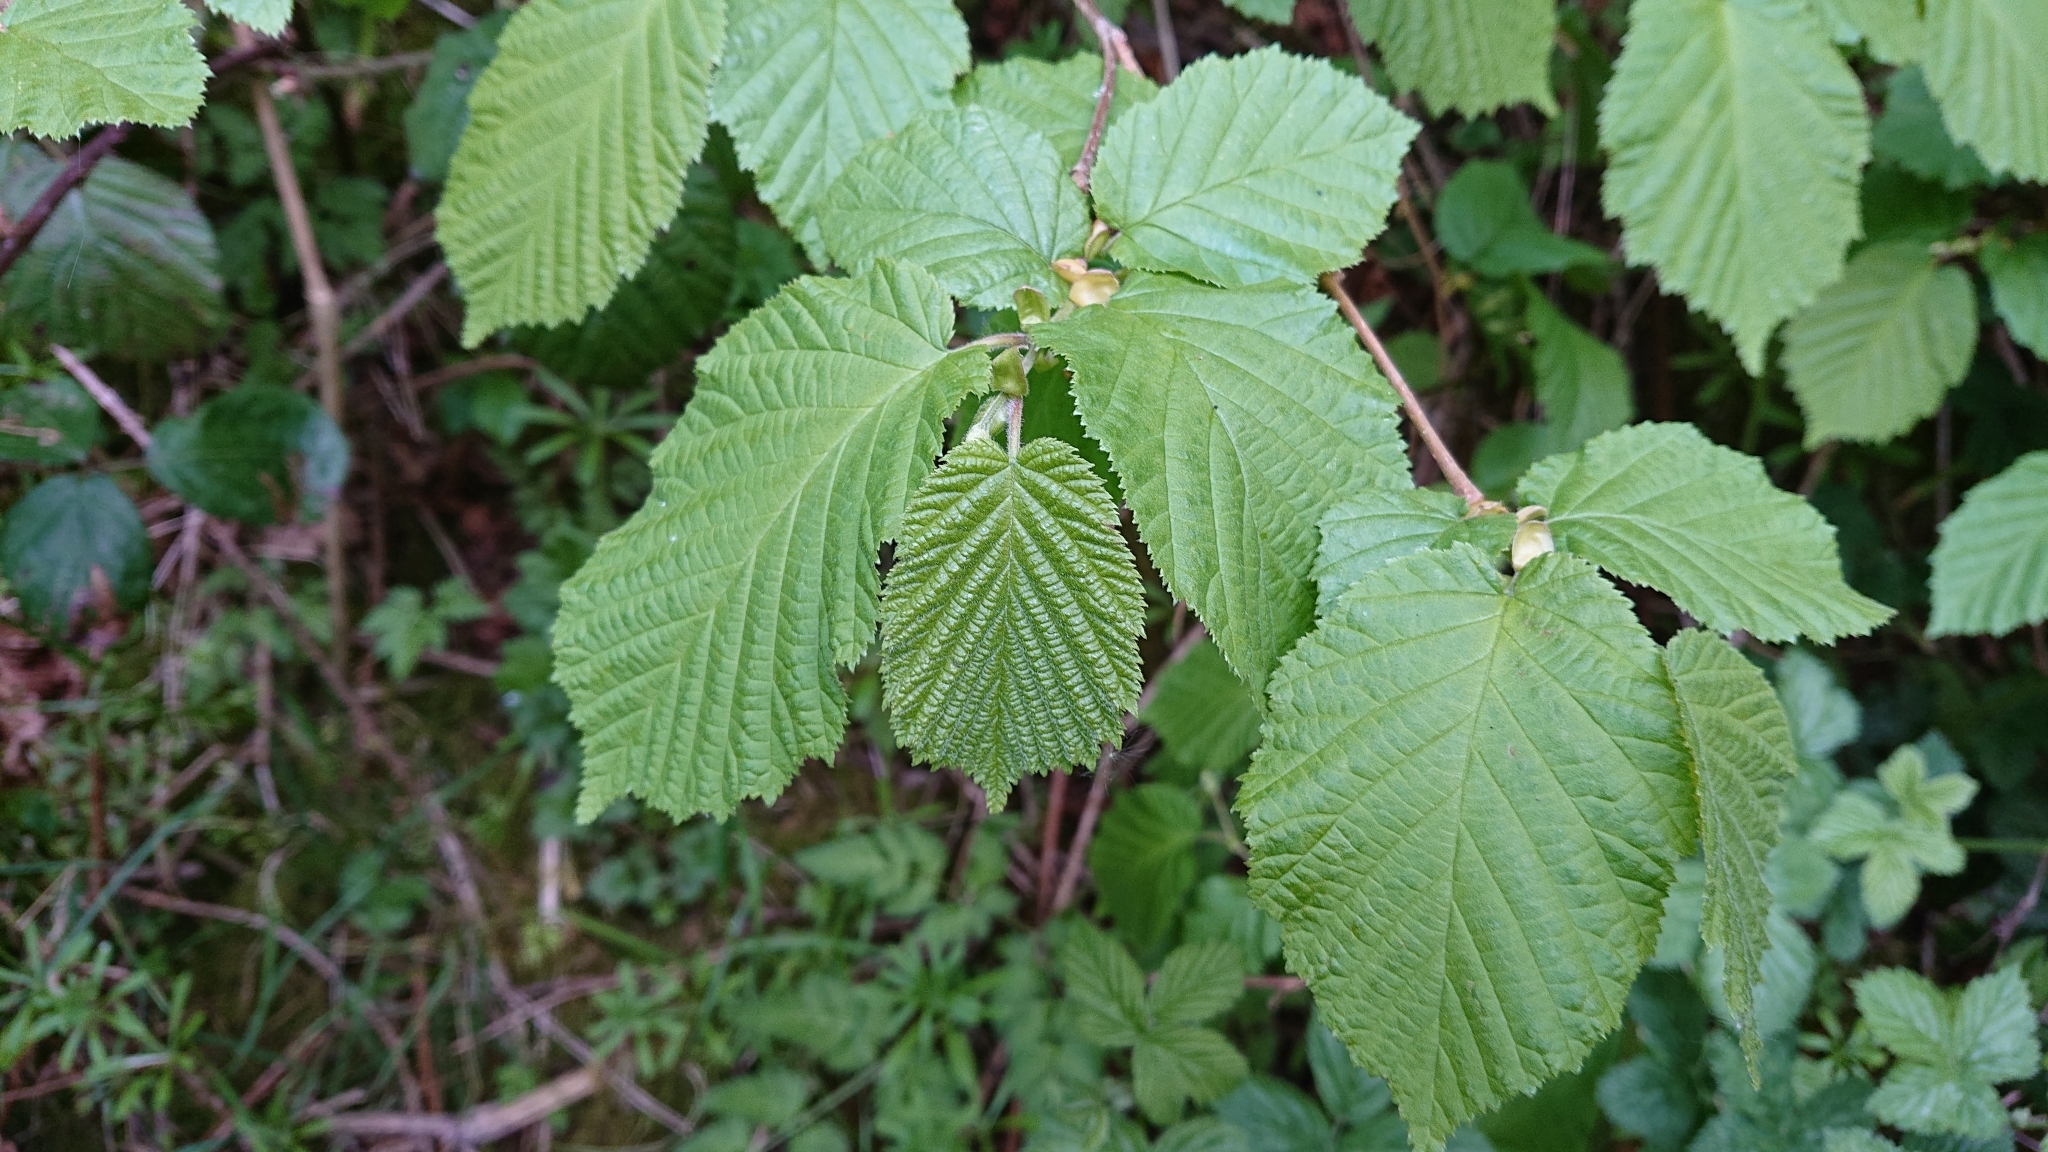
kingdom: Plantae
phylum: Tracheophyta
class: Magnoliopsida
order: Fagales
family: Betulaceae
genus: Corylus
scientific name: Corylus avellana
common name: European hazel
